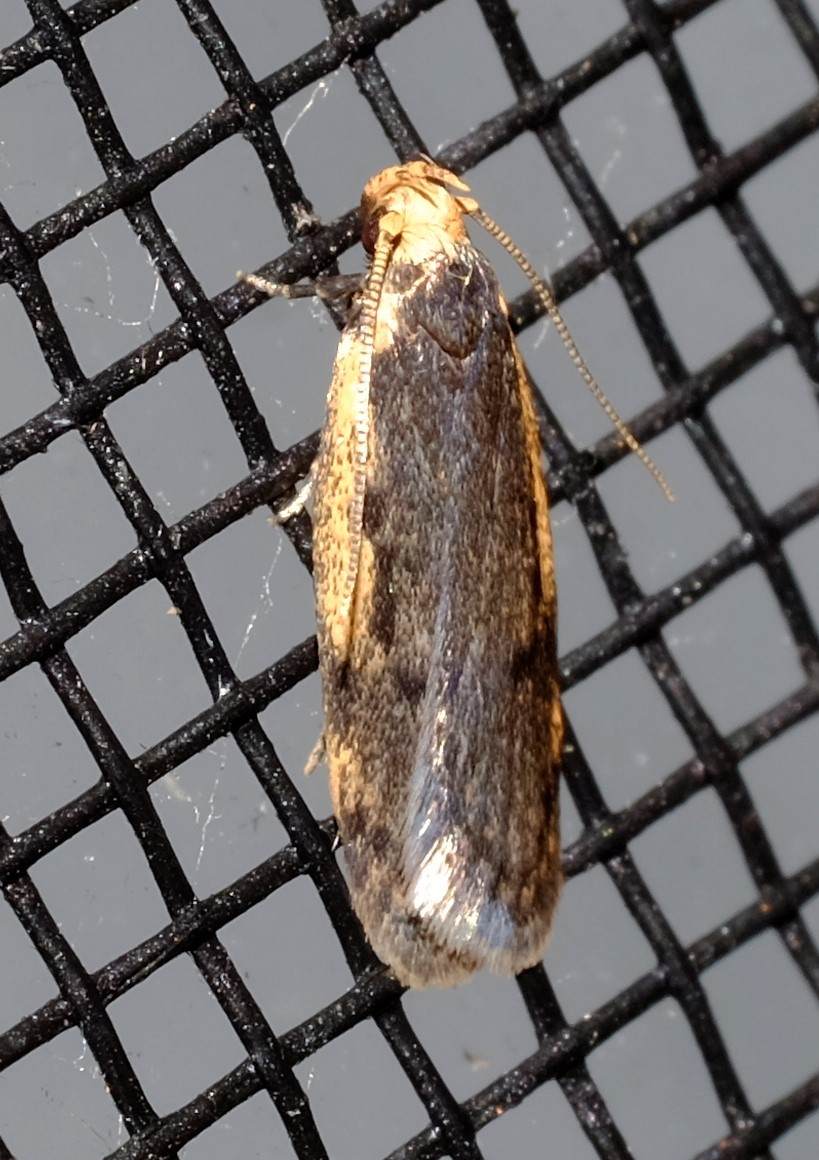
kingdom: Animalia
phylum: Arthropoda
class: Insecta
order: Lepidoptera
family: Oecophoridae
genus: Hoplostega
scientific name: Hoplostega ochroma
